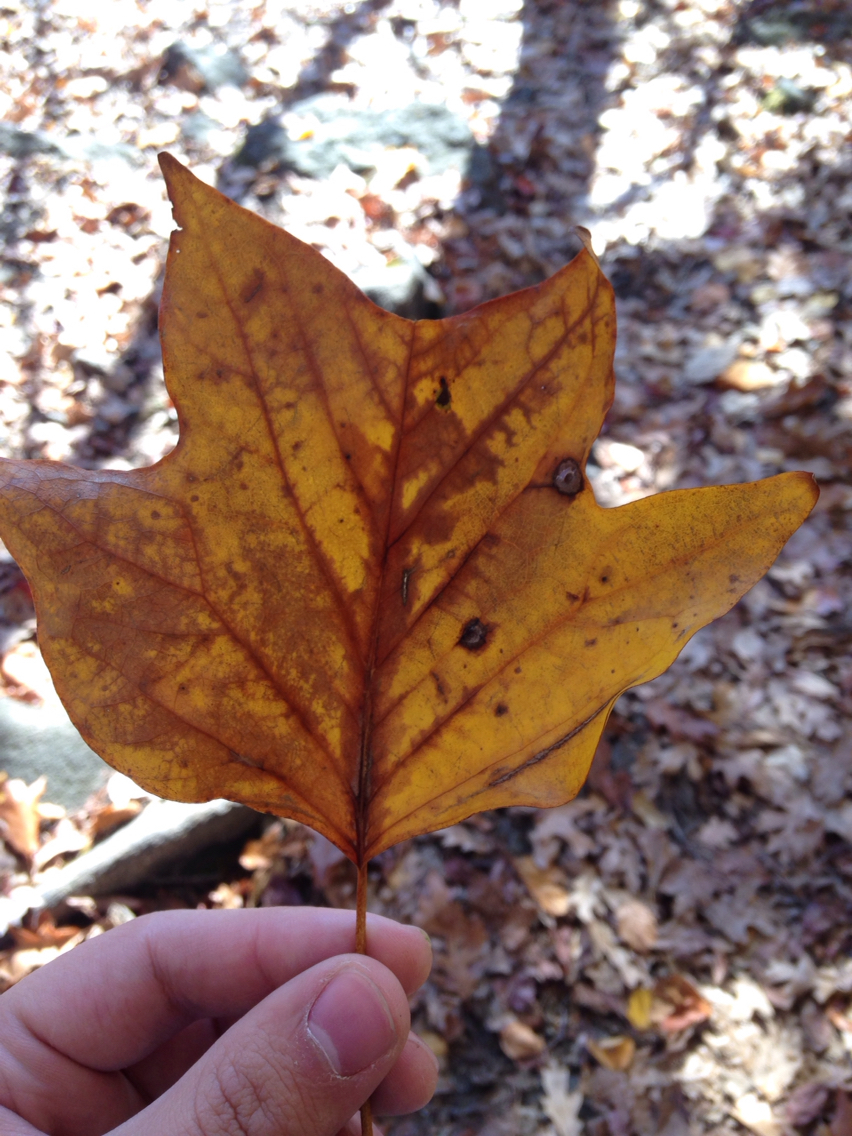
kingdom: Plantae
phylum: Tracheophyta
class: Magnoliopsida
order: Magnoliales
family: Magnoliaceae
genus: Liriodendron
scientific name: Liriodendron tulipifera
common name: Tulip tree
